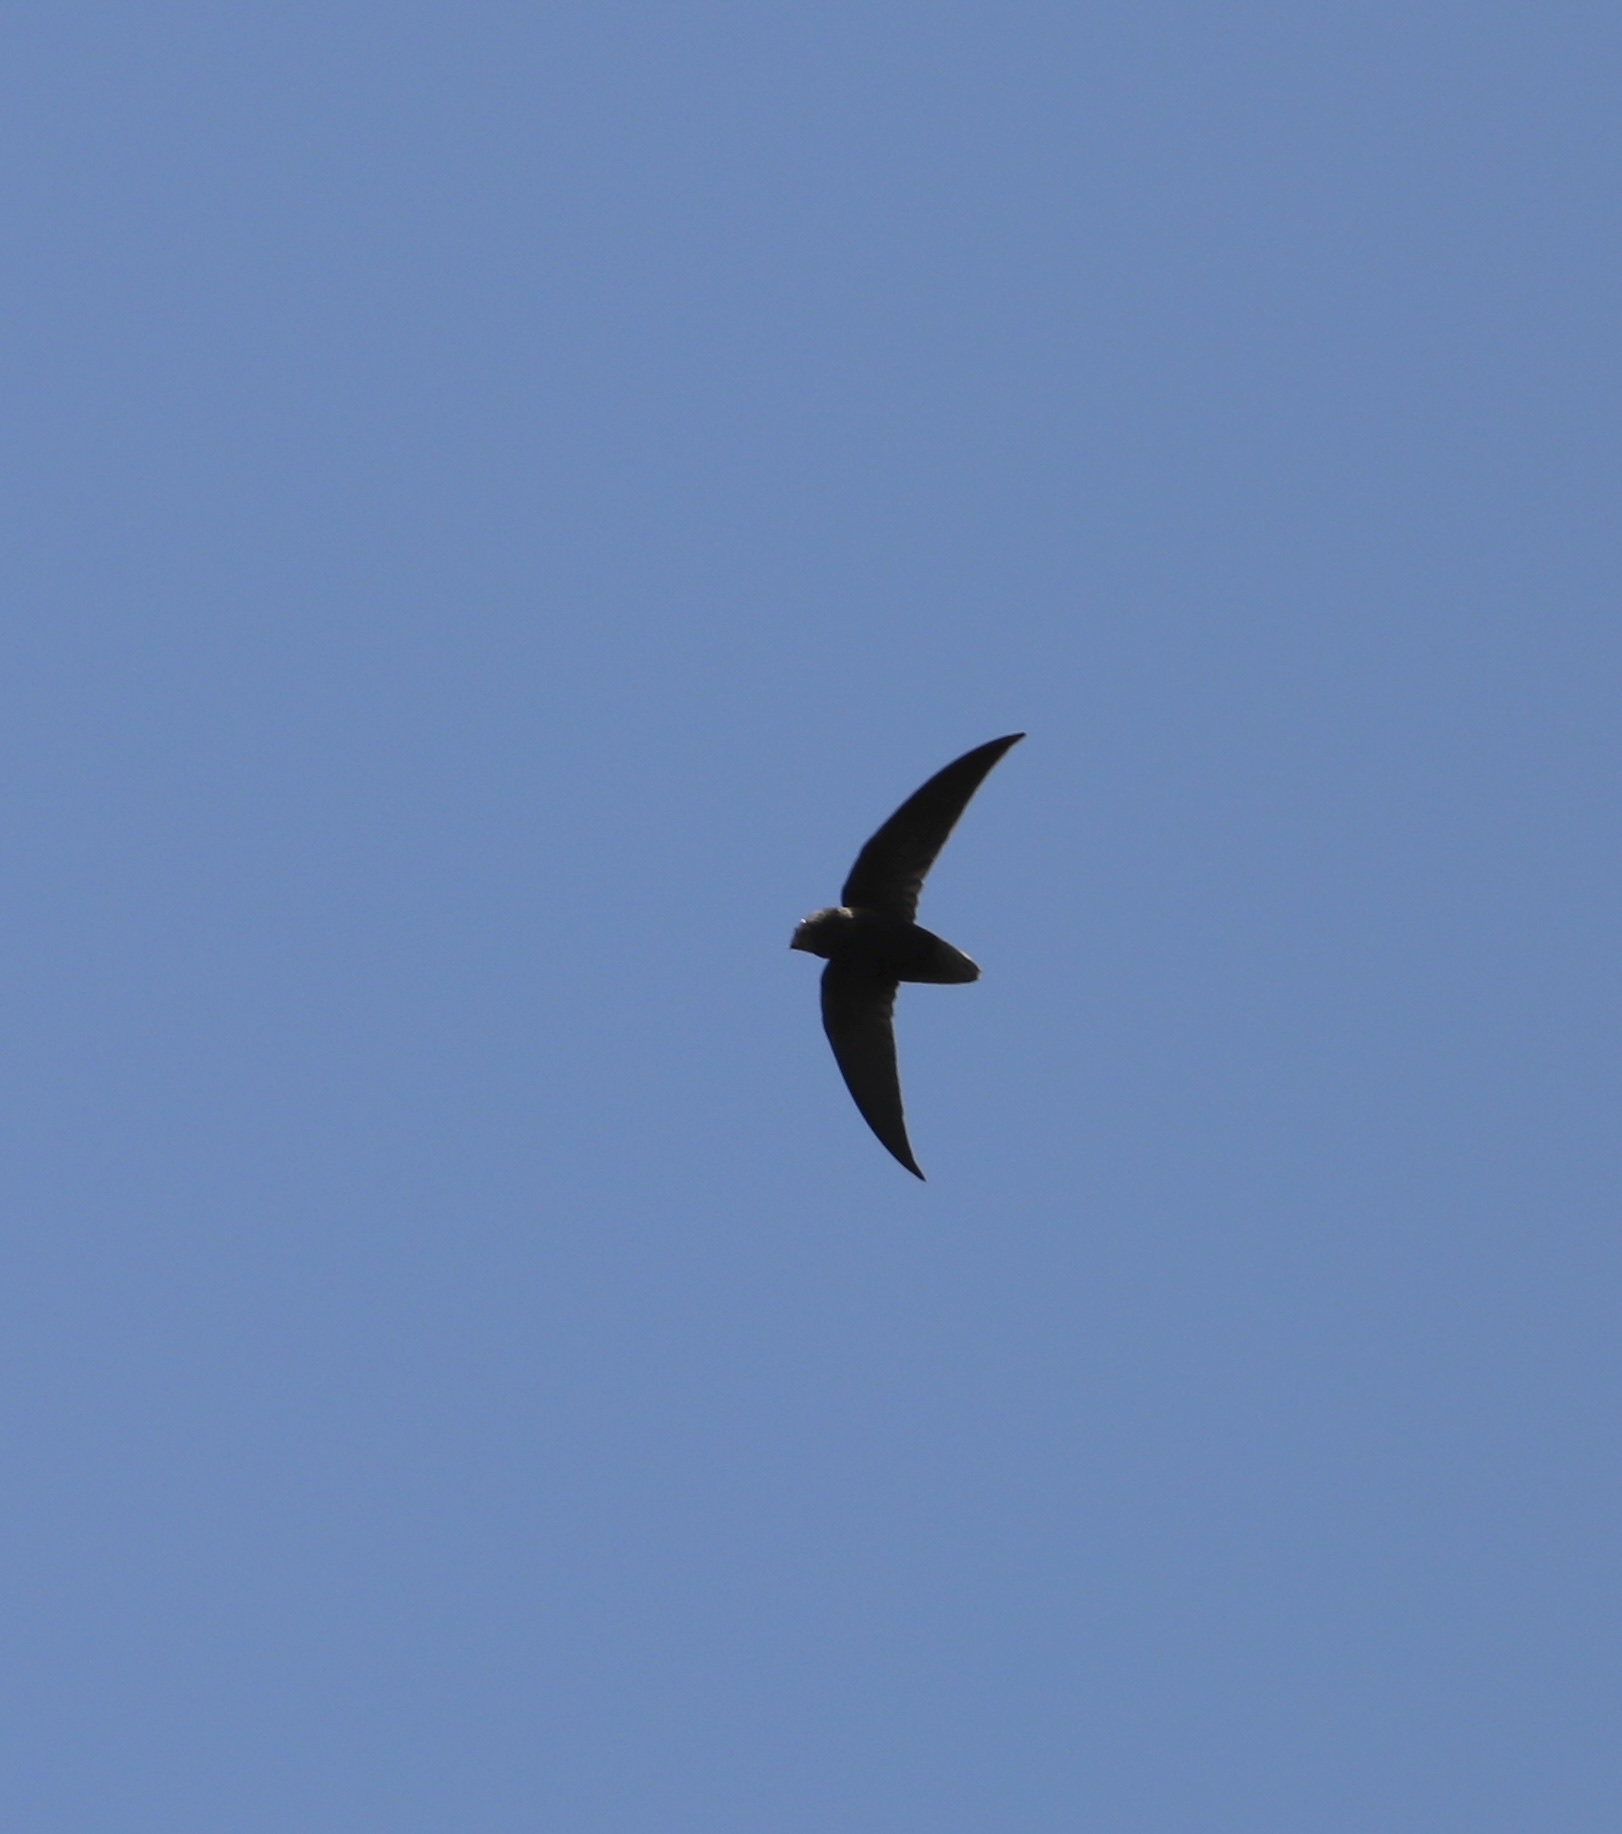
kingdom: Animalia
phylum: Chordata
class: Aves
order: Apodiformes
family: Apodidae
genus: Chaetura
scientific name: Chaetura brachyura
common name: Short-tailed swift
